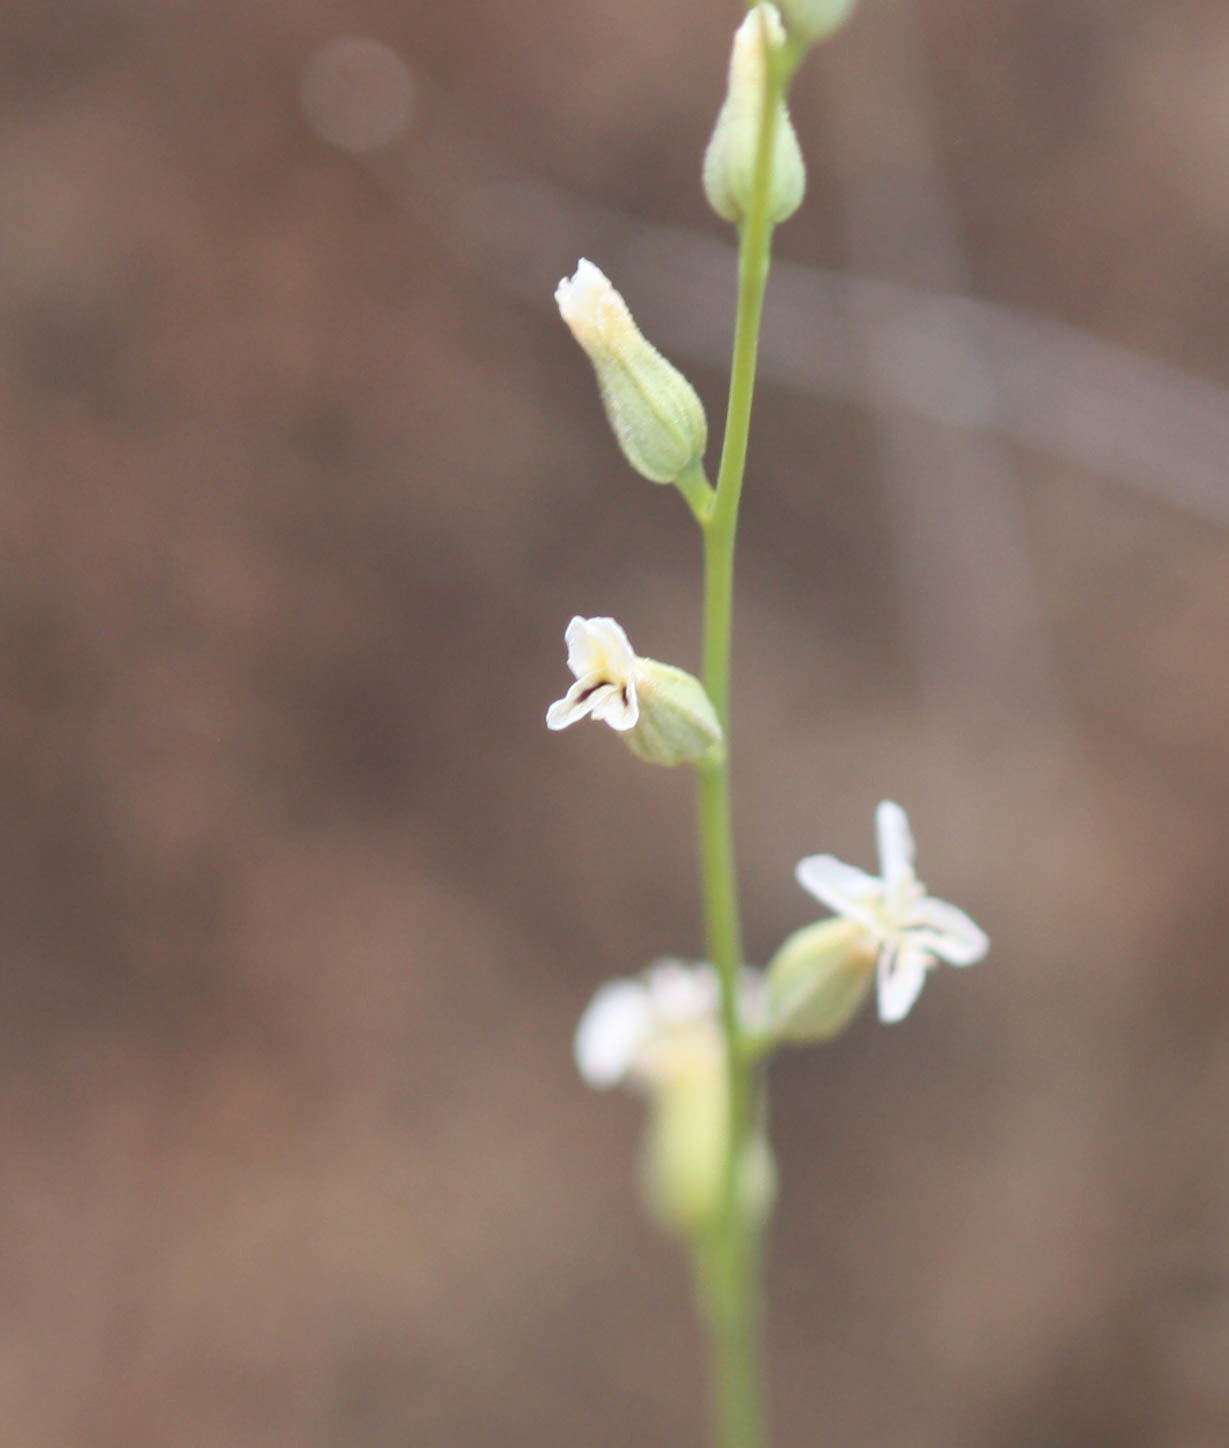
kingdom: Plantae
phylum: Tracheophyta
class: Magnoliopsida
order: Brassicales
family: Brassicaceae
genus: Streptanthus
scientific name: Streptanthus barbiger
